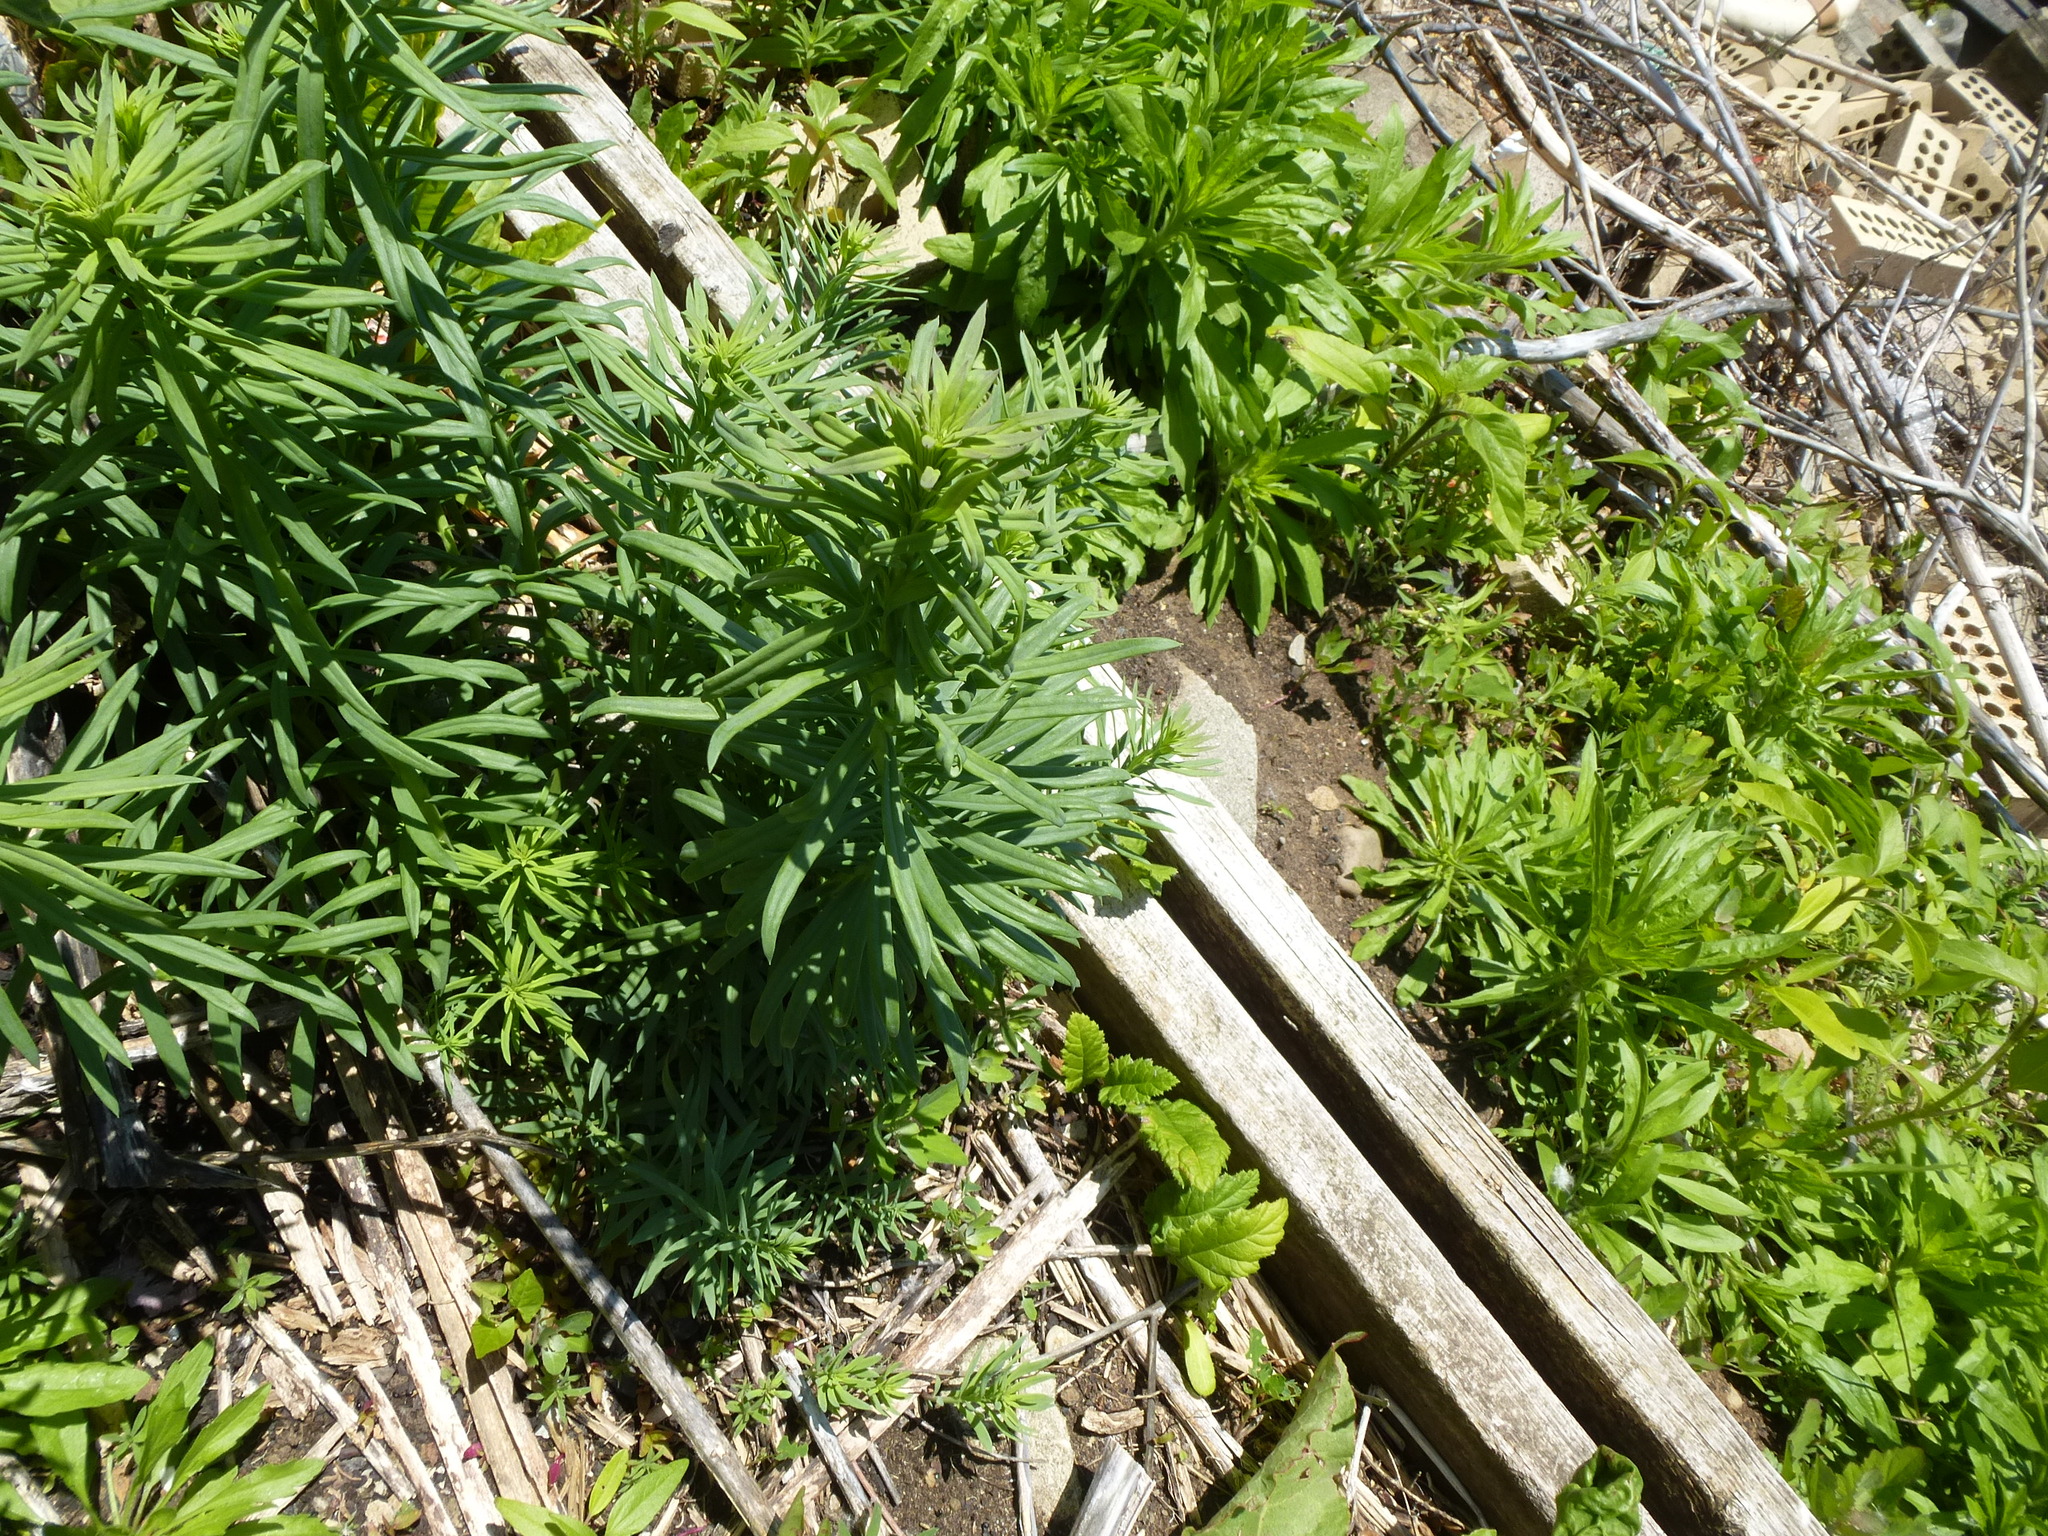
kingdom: Plantae
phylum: Tracheophyta
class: Magnoliopsida
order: Lamiales
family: Plantaginaceae
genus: Linaria
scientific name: Linaria vulgaris
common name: Butter and eggs
